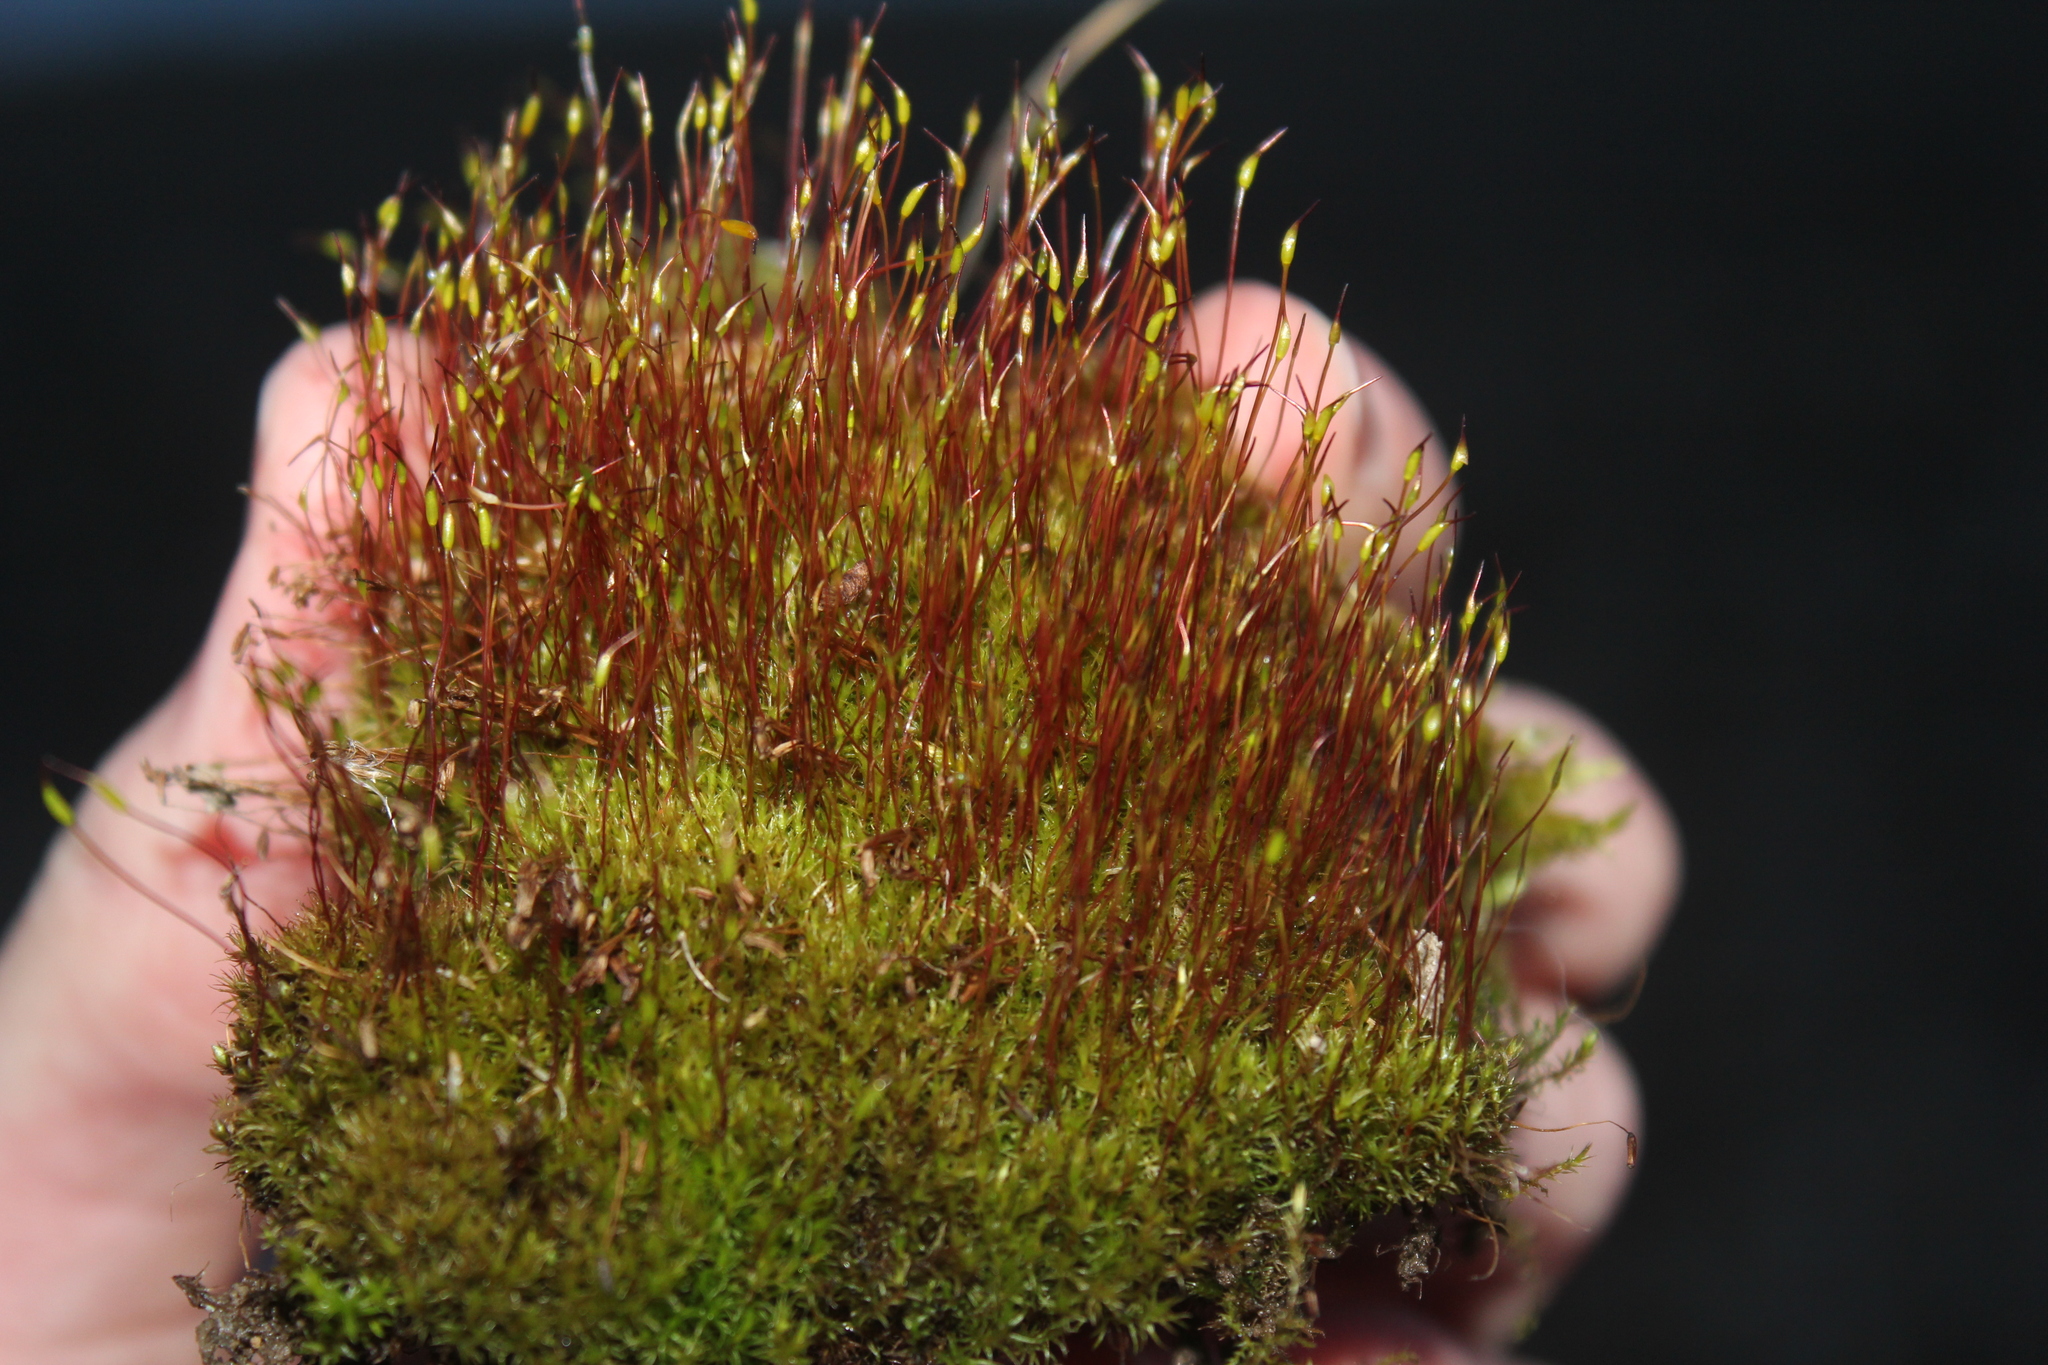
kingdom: Plantae
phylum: Bryophyta
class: Bryopsida
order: Dicranales
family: Ditrichaceae
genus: Ceratodon
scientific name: Ceratodon purpureus
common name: Redshank
